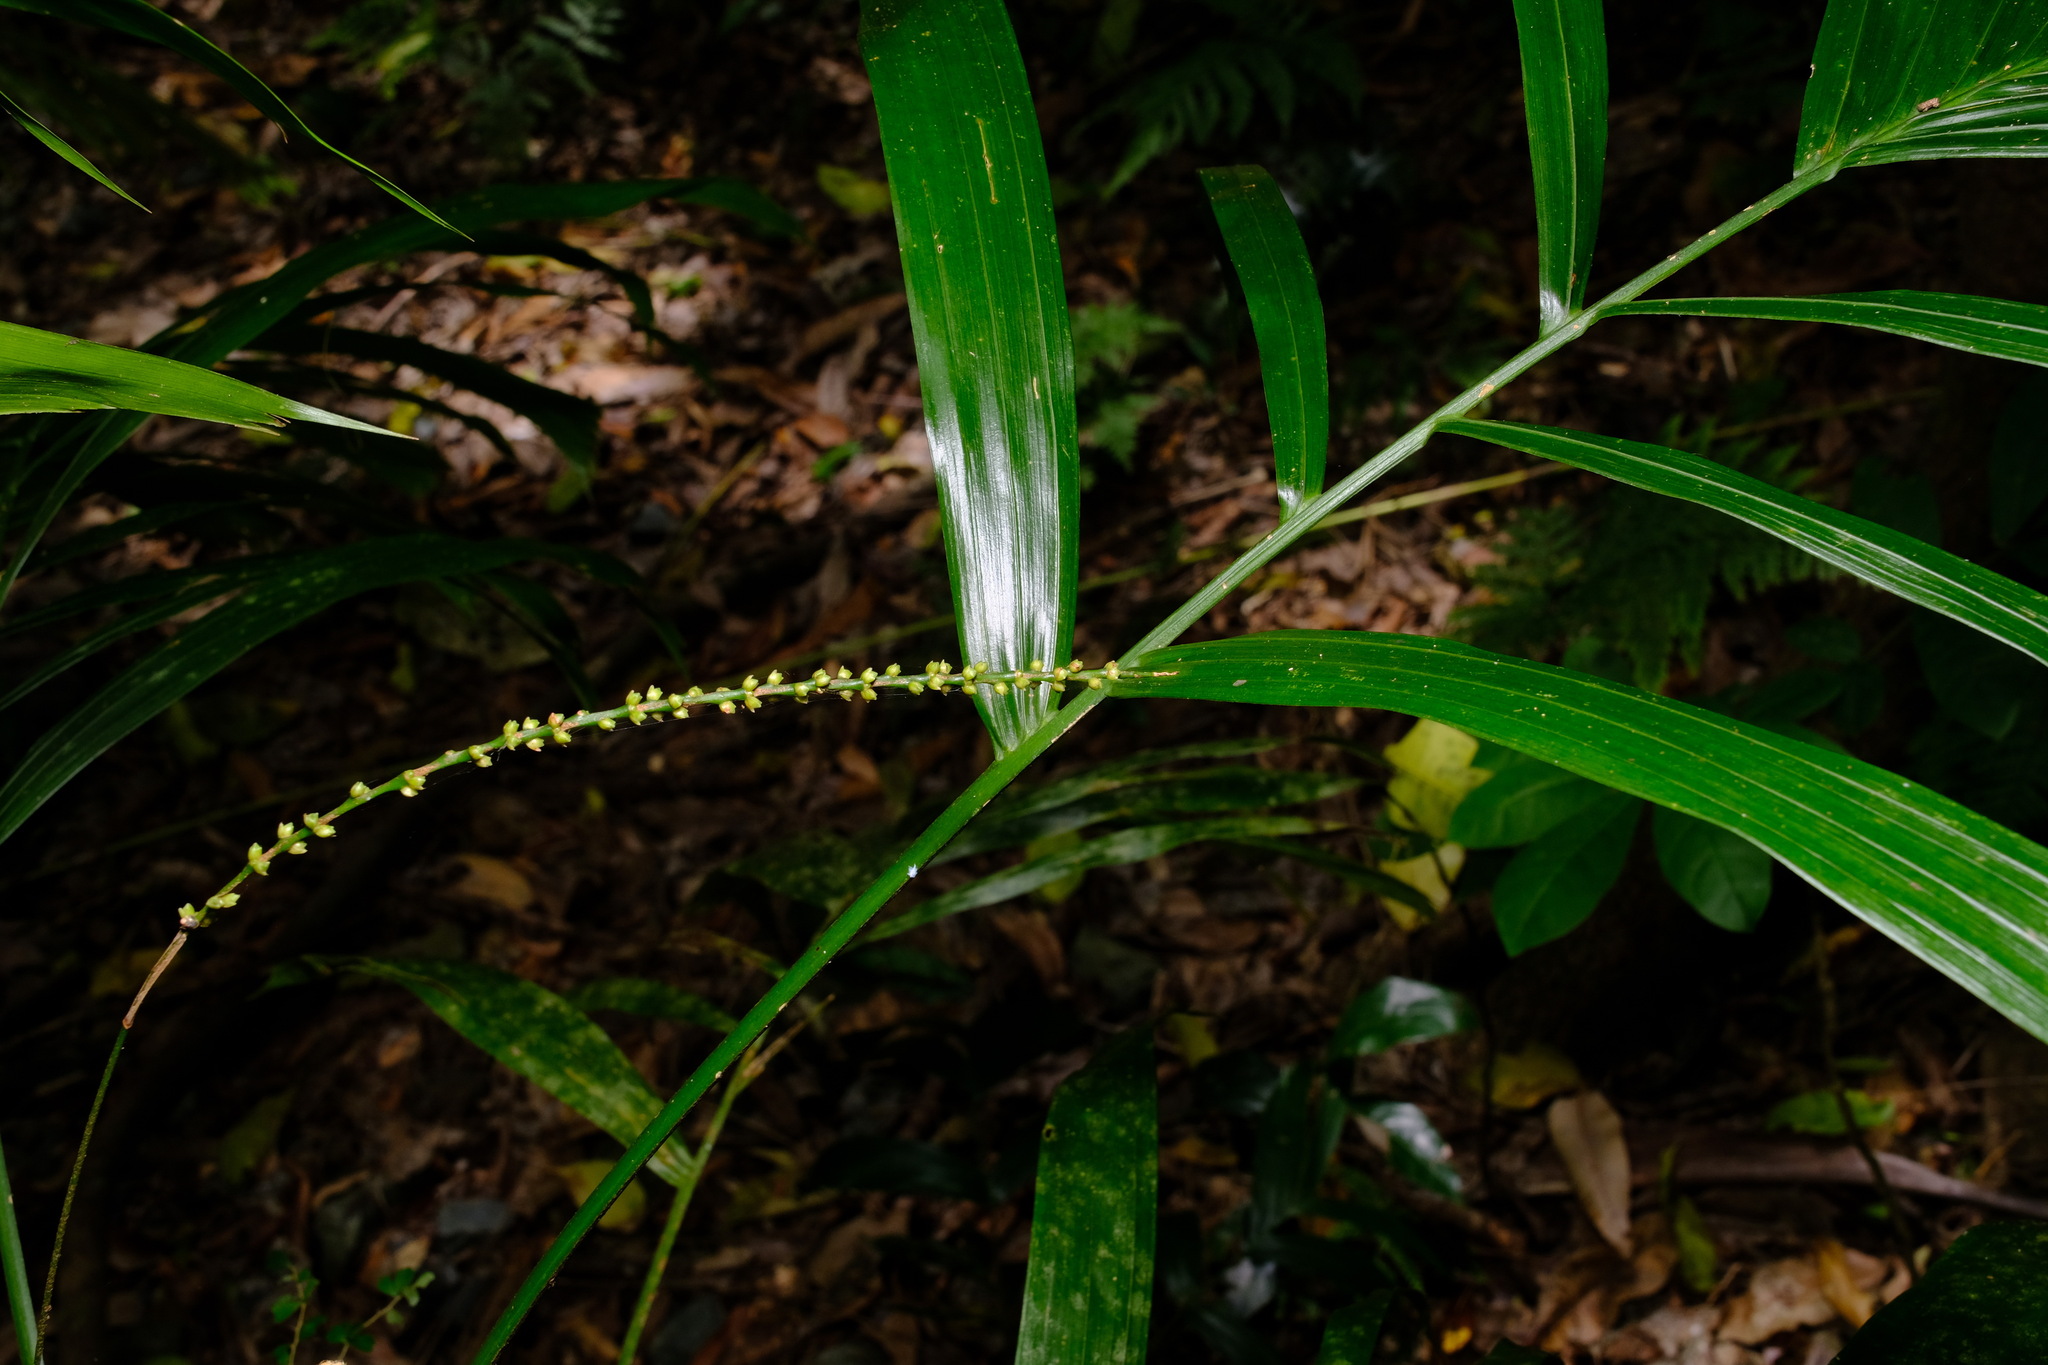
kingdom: Plantae
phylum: Tracheophyta
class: Liliopsida
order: Arecales
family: Arecaceae
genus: Linospadix
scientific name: Linospadix monostachyus
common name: Walking-stick palm
